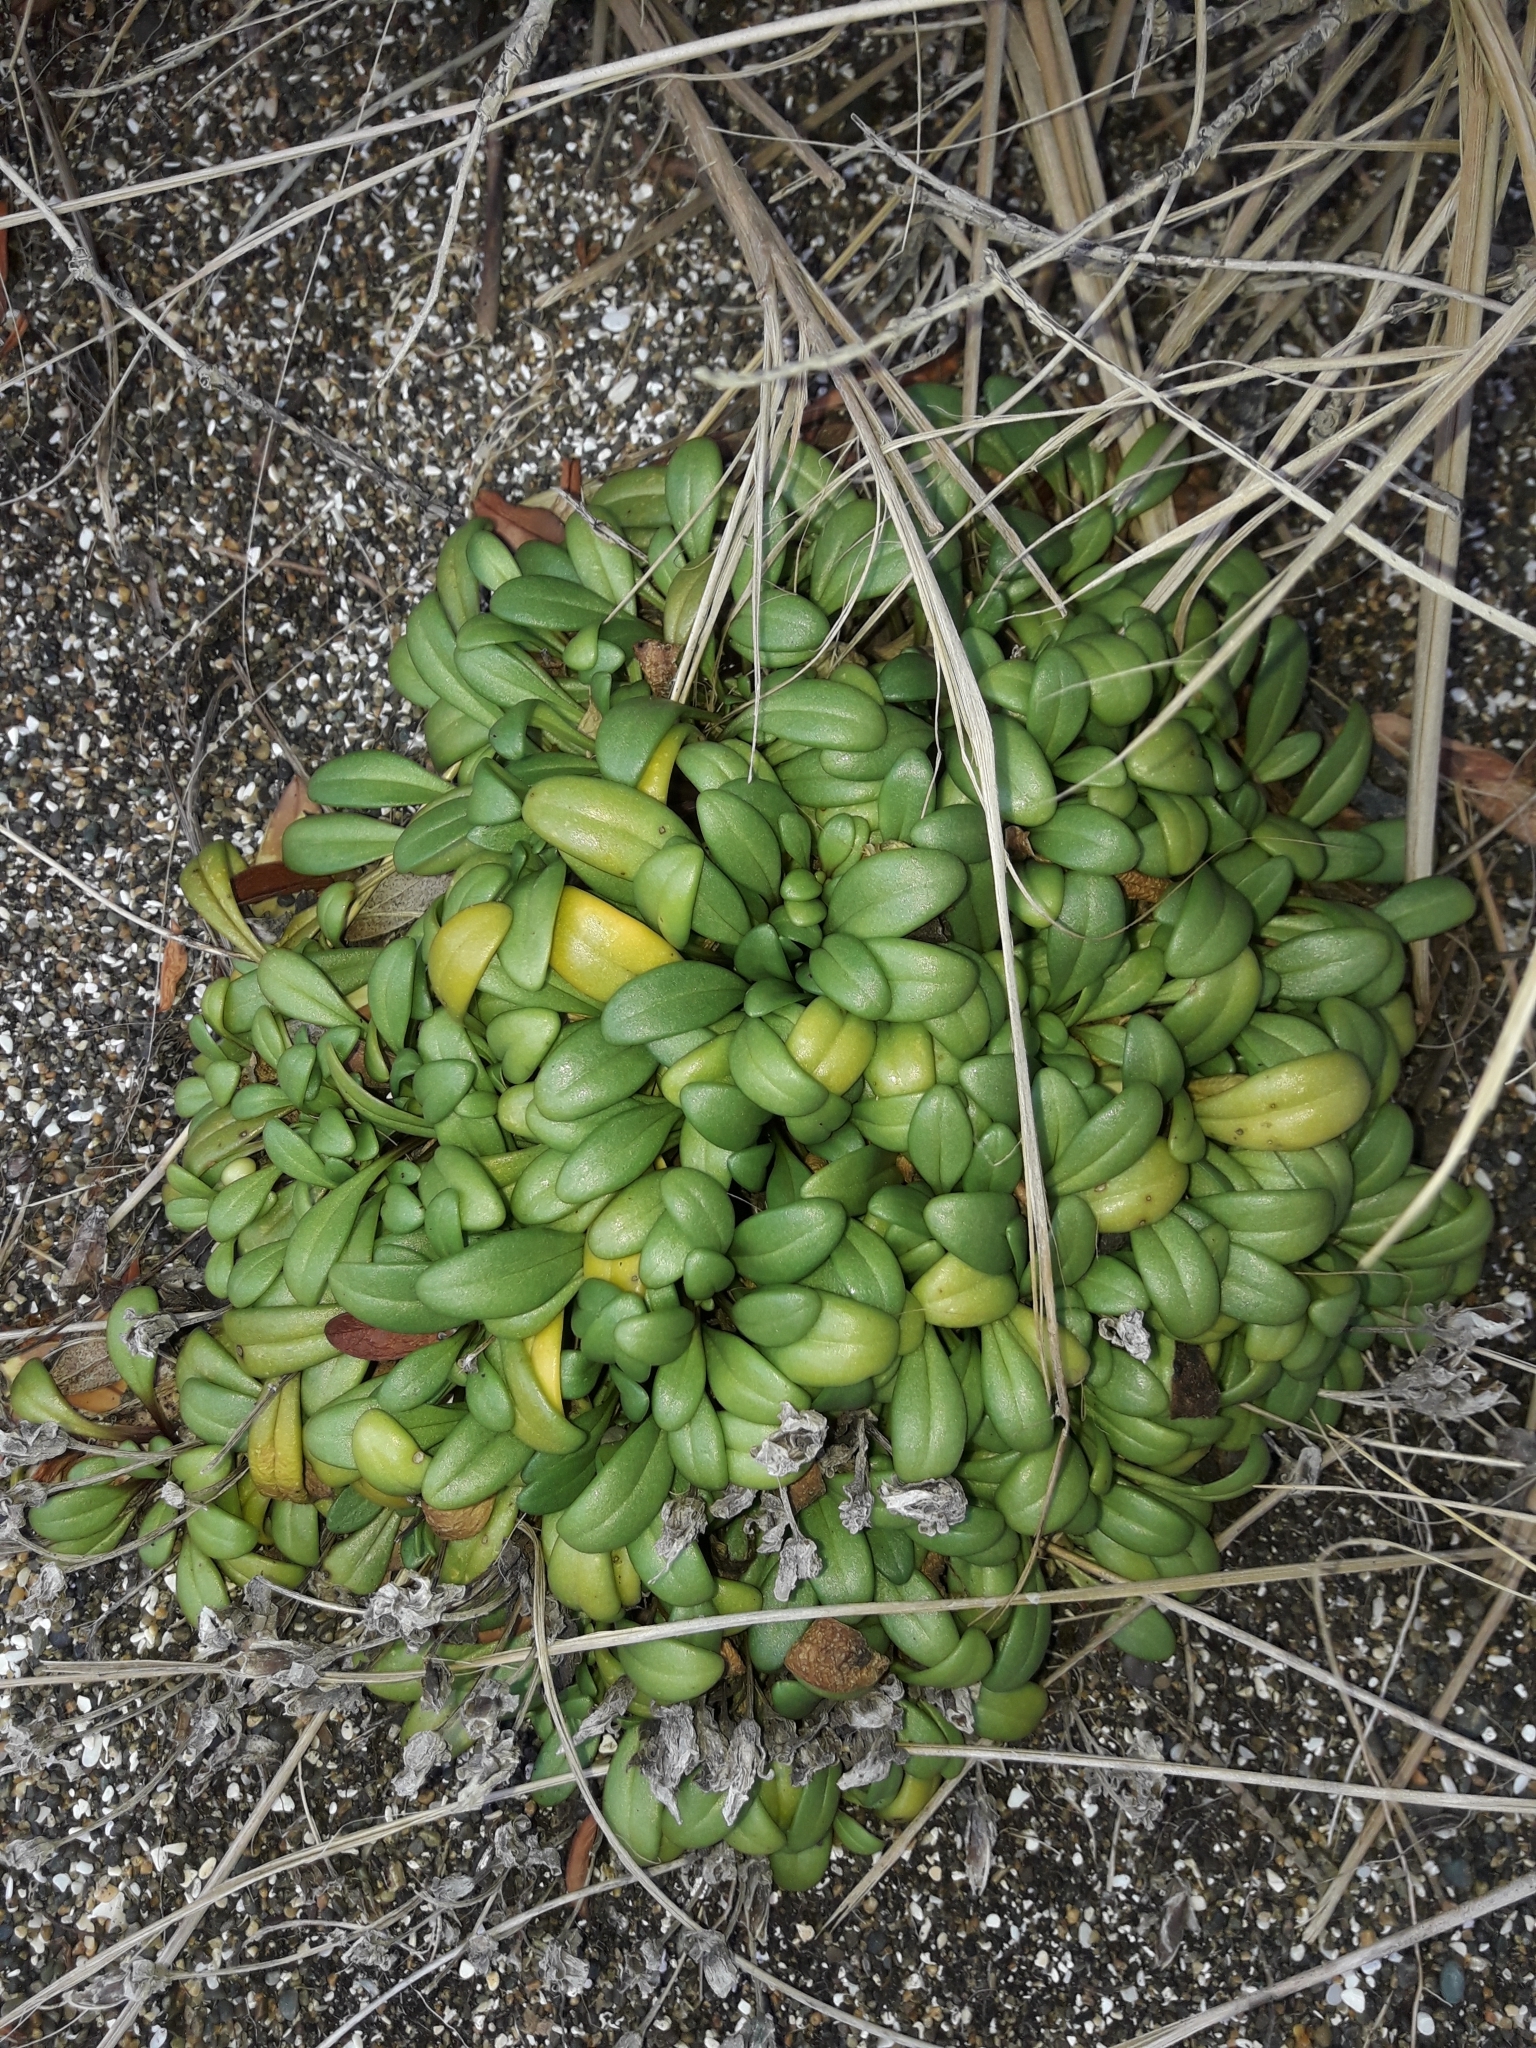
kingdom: Plantae
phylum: Tracheophyta
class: Magnoliopsida
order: Gentianales
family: Gentianaceae
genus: Gentianella
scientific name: Gentianella saxosa
